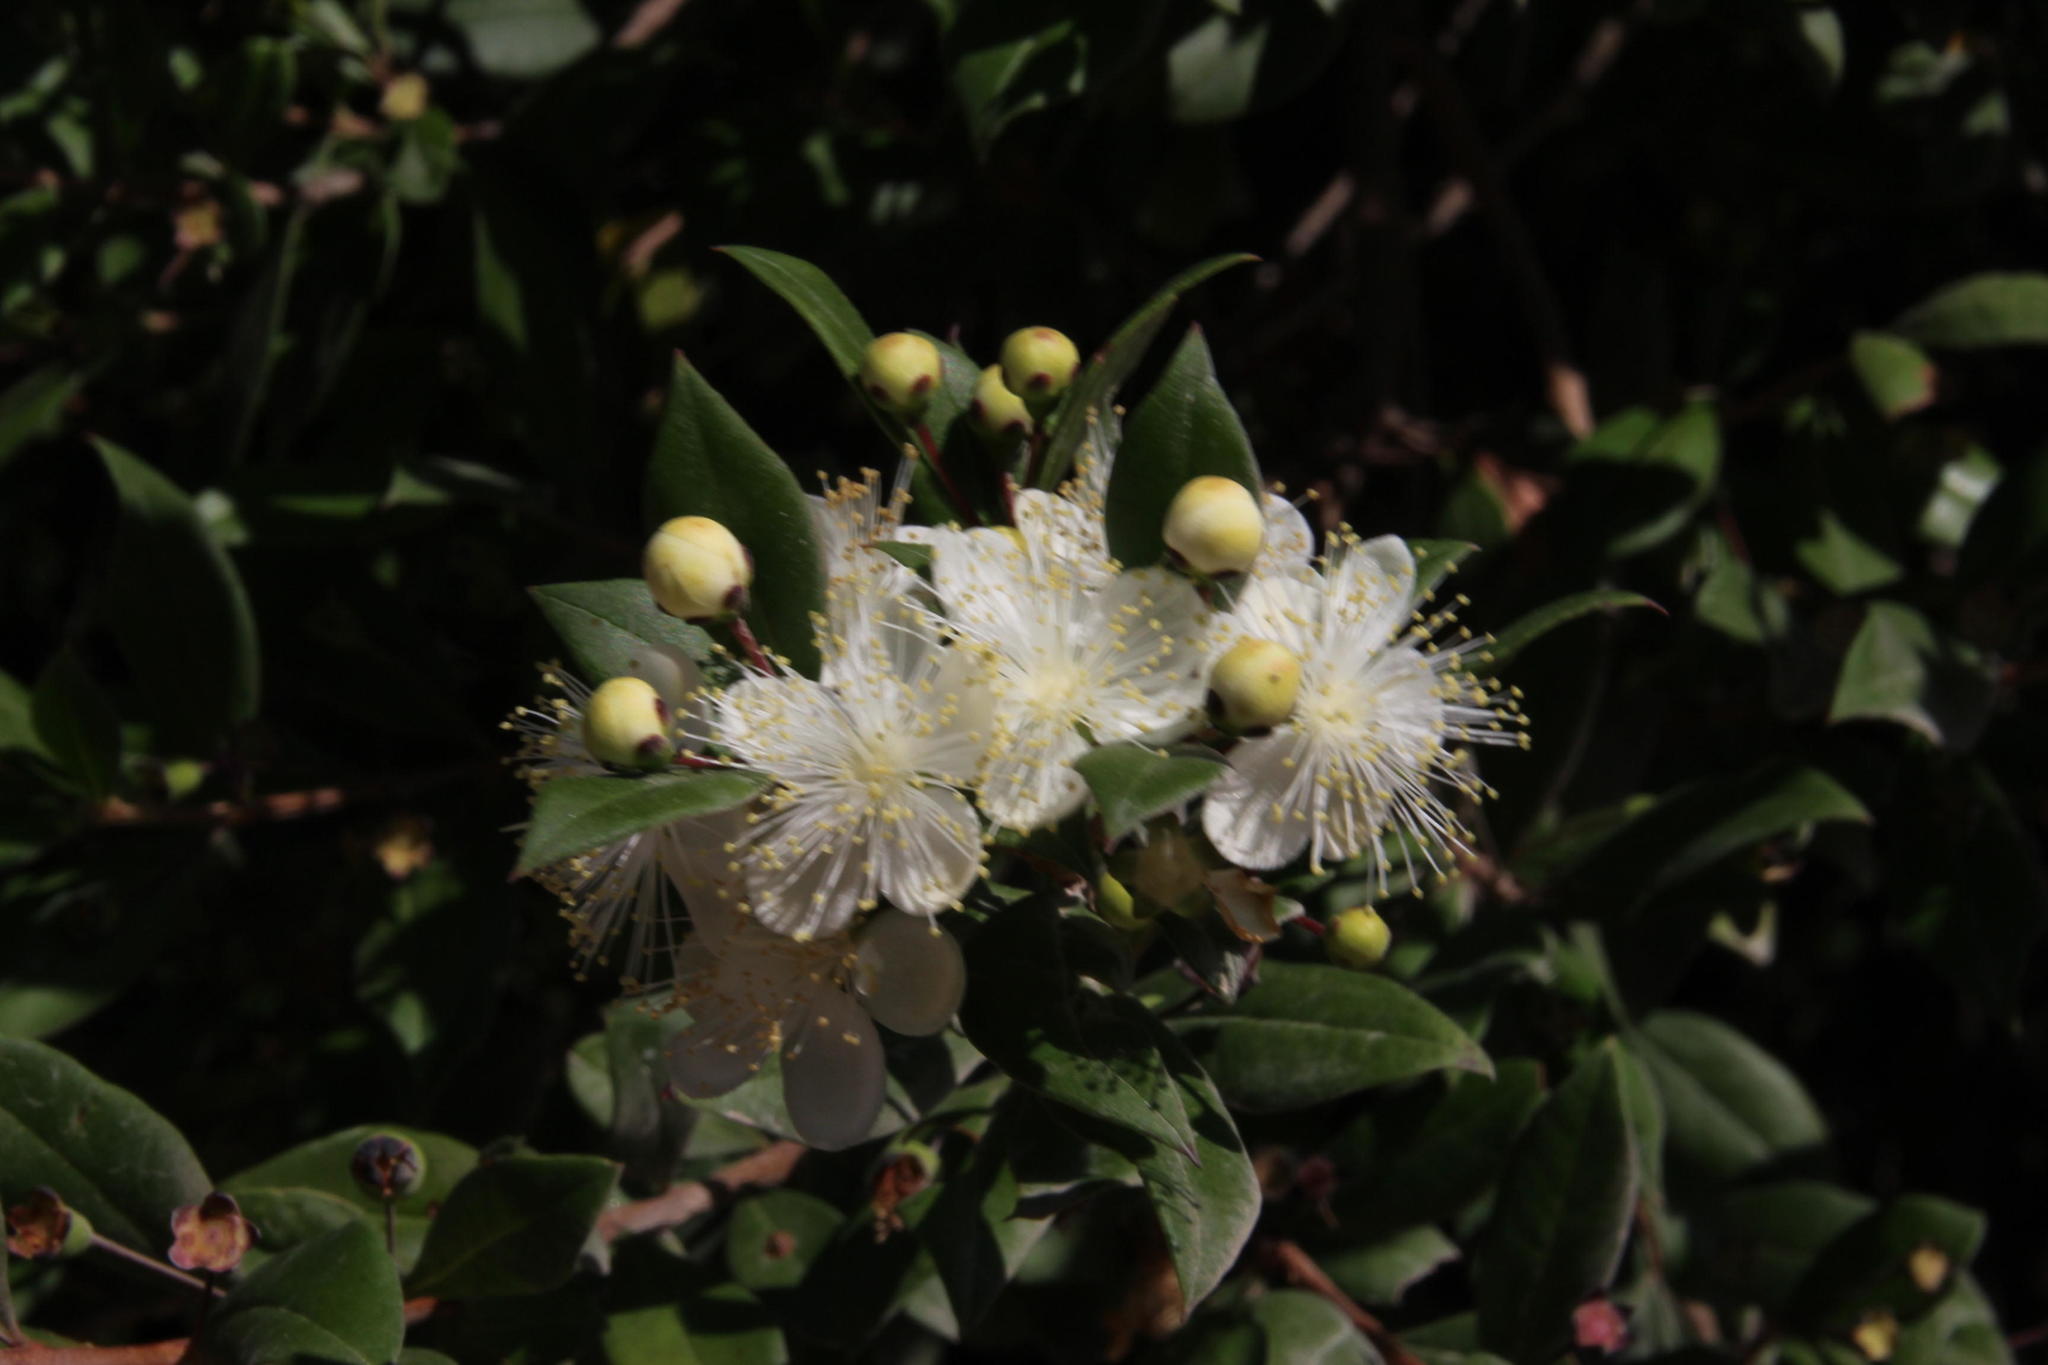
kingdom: Plantae
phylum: Tracheophyta
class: Magnoliopsida
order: Myrtales
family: Myrtaceae
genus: Myrtus
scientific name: Myrtus communis
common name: Myrtle
